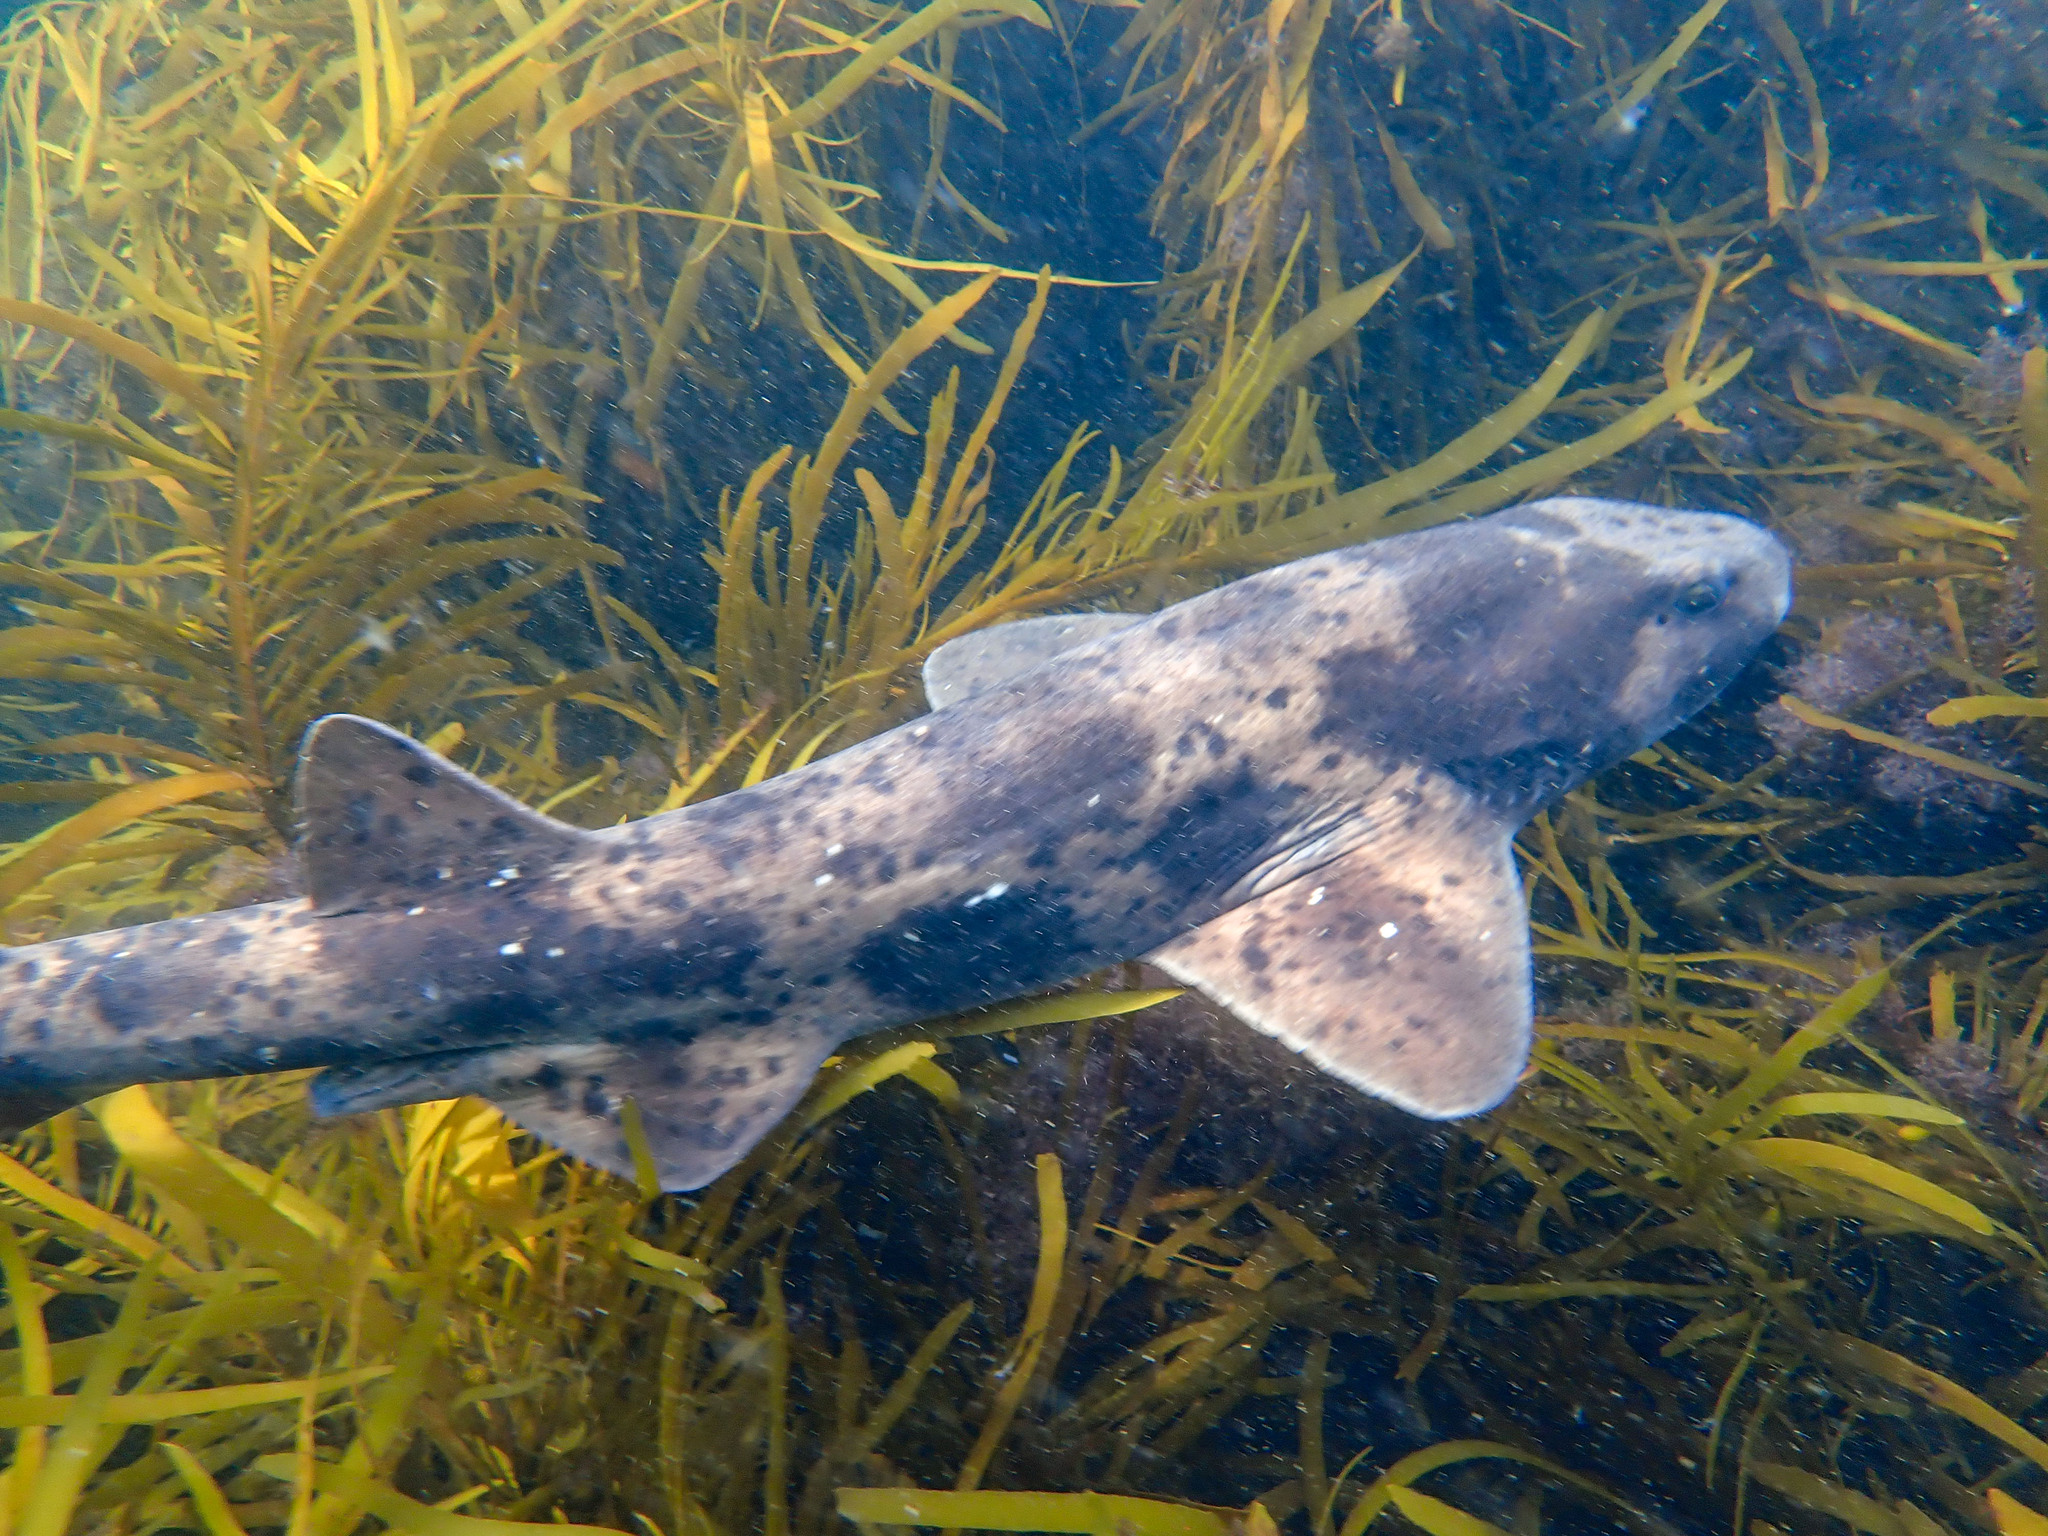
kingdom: Animalia
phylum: Chordata
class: Elasmobranchii
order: Carcharhiniformes
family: Scyliorhinidae
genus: Cephaloscyllium
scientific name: Cephaloscyllium laticeps
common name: Australian swellshark
